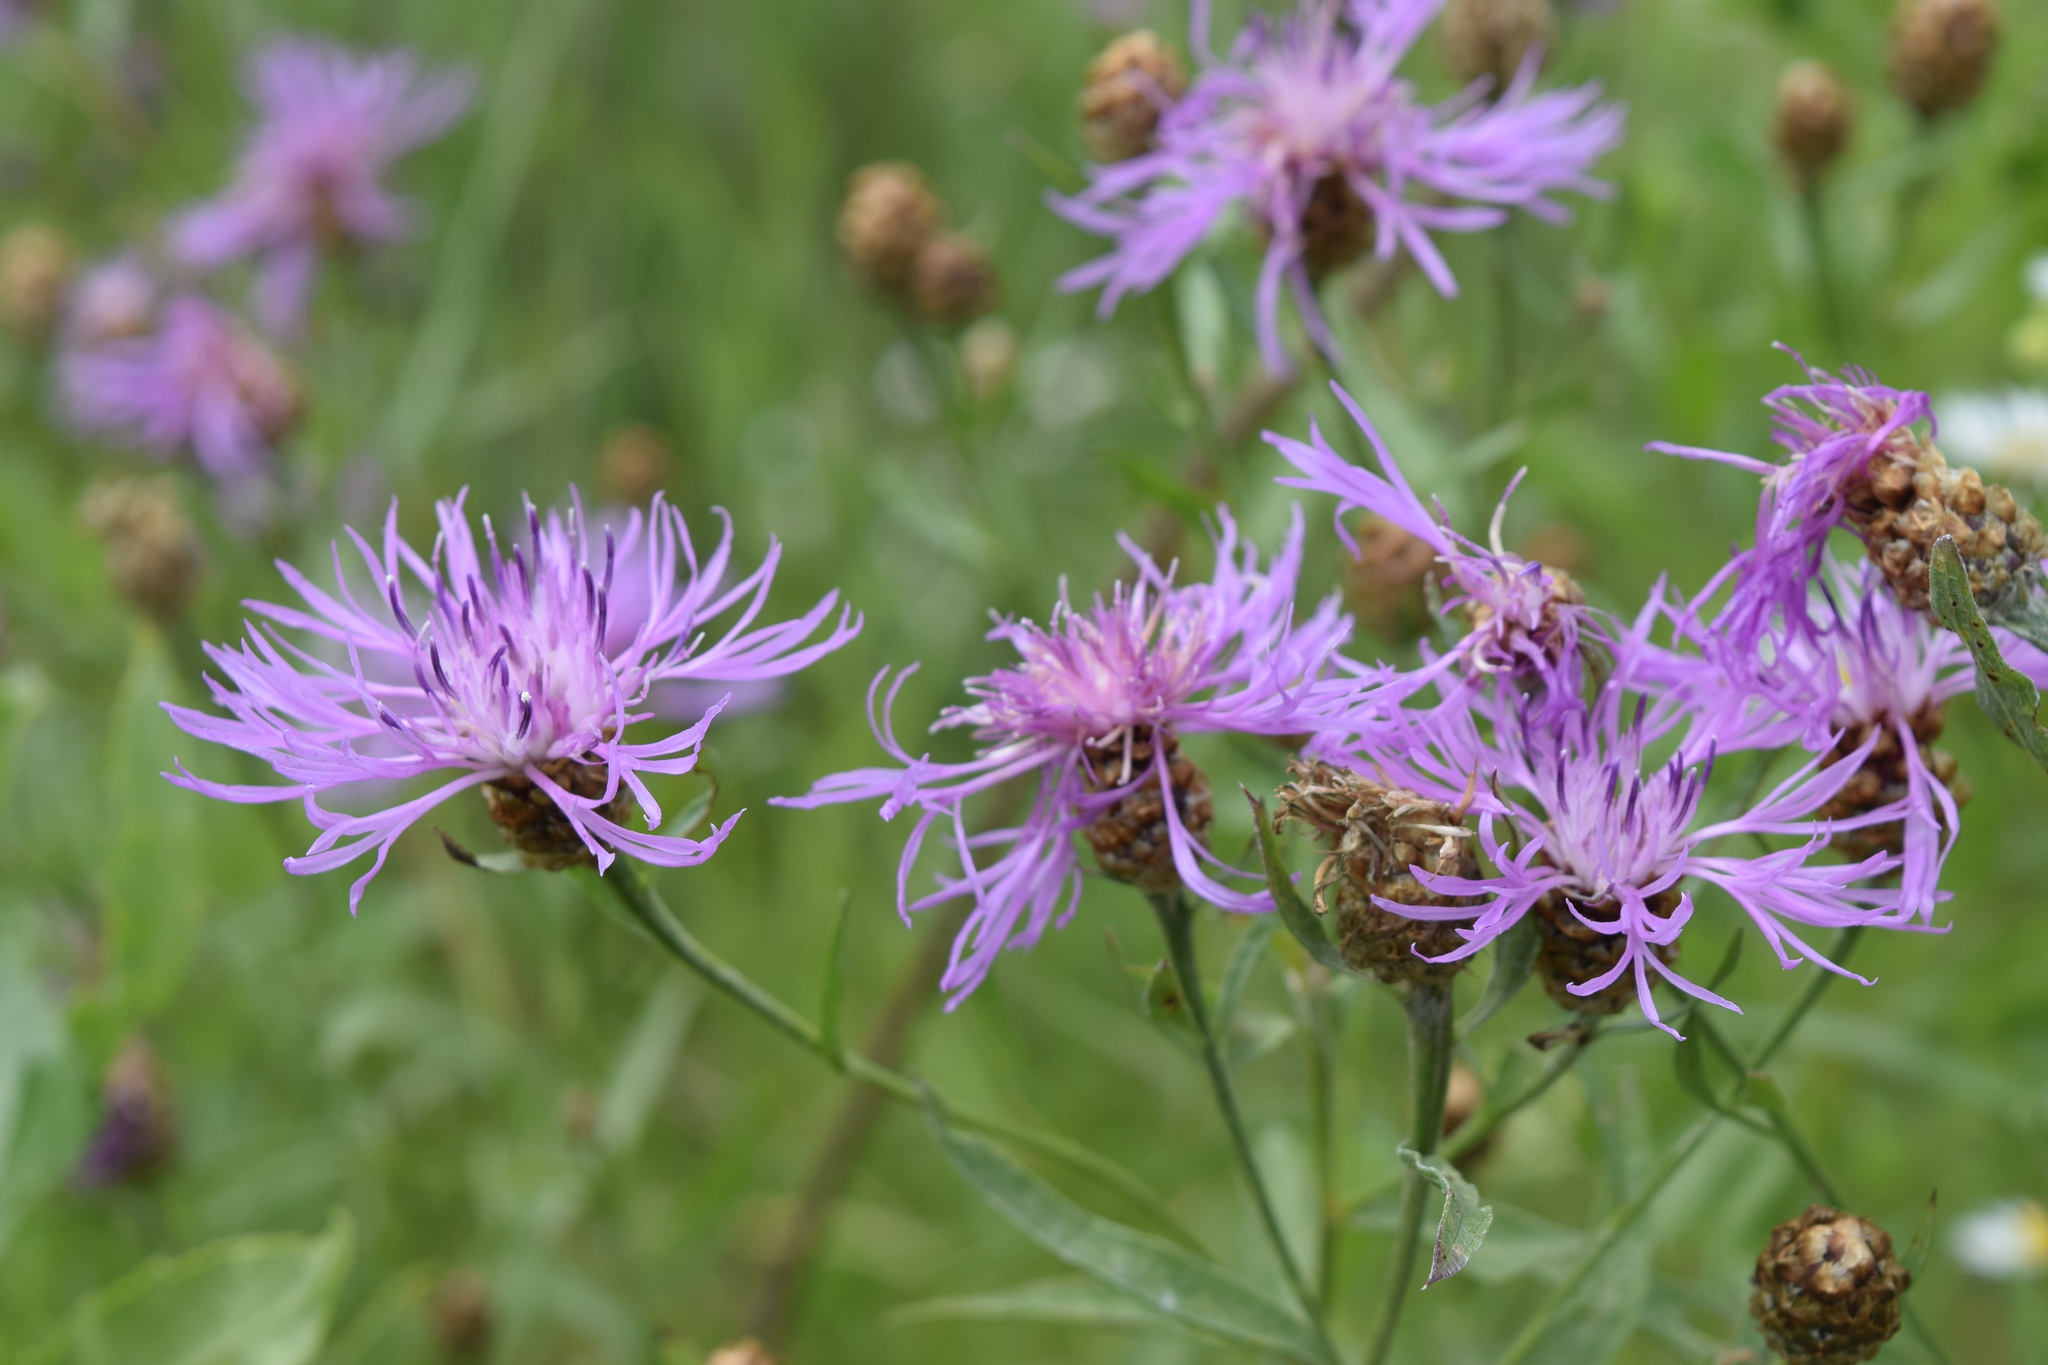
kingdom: Plantae
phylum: Tracheophyta
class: Magnoliopsida
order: Asterales
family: Asteraceae
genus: Centaurea
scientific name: Centaurea jacea
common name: Brown knapweed
